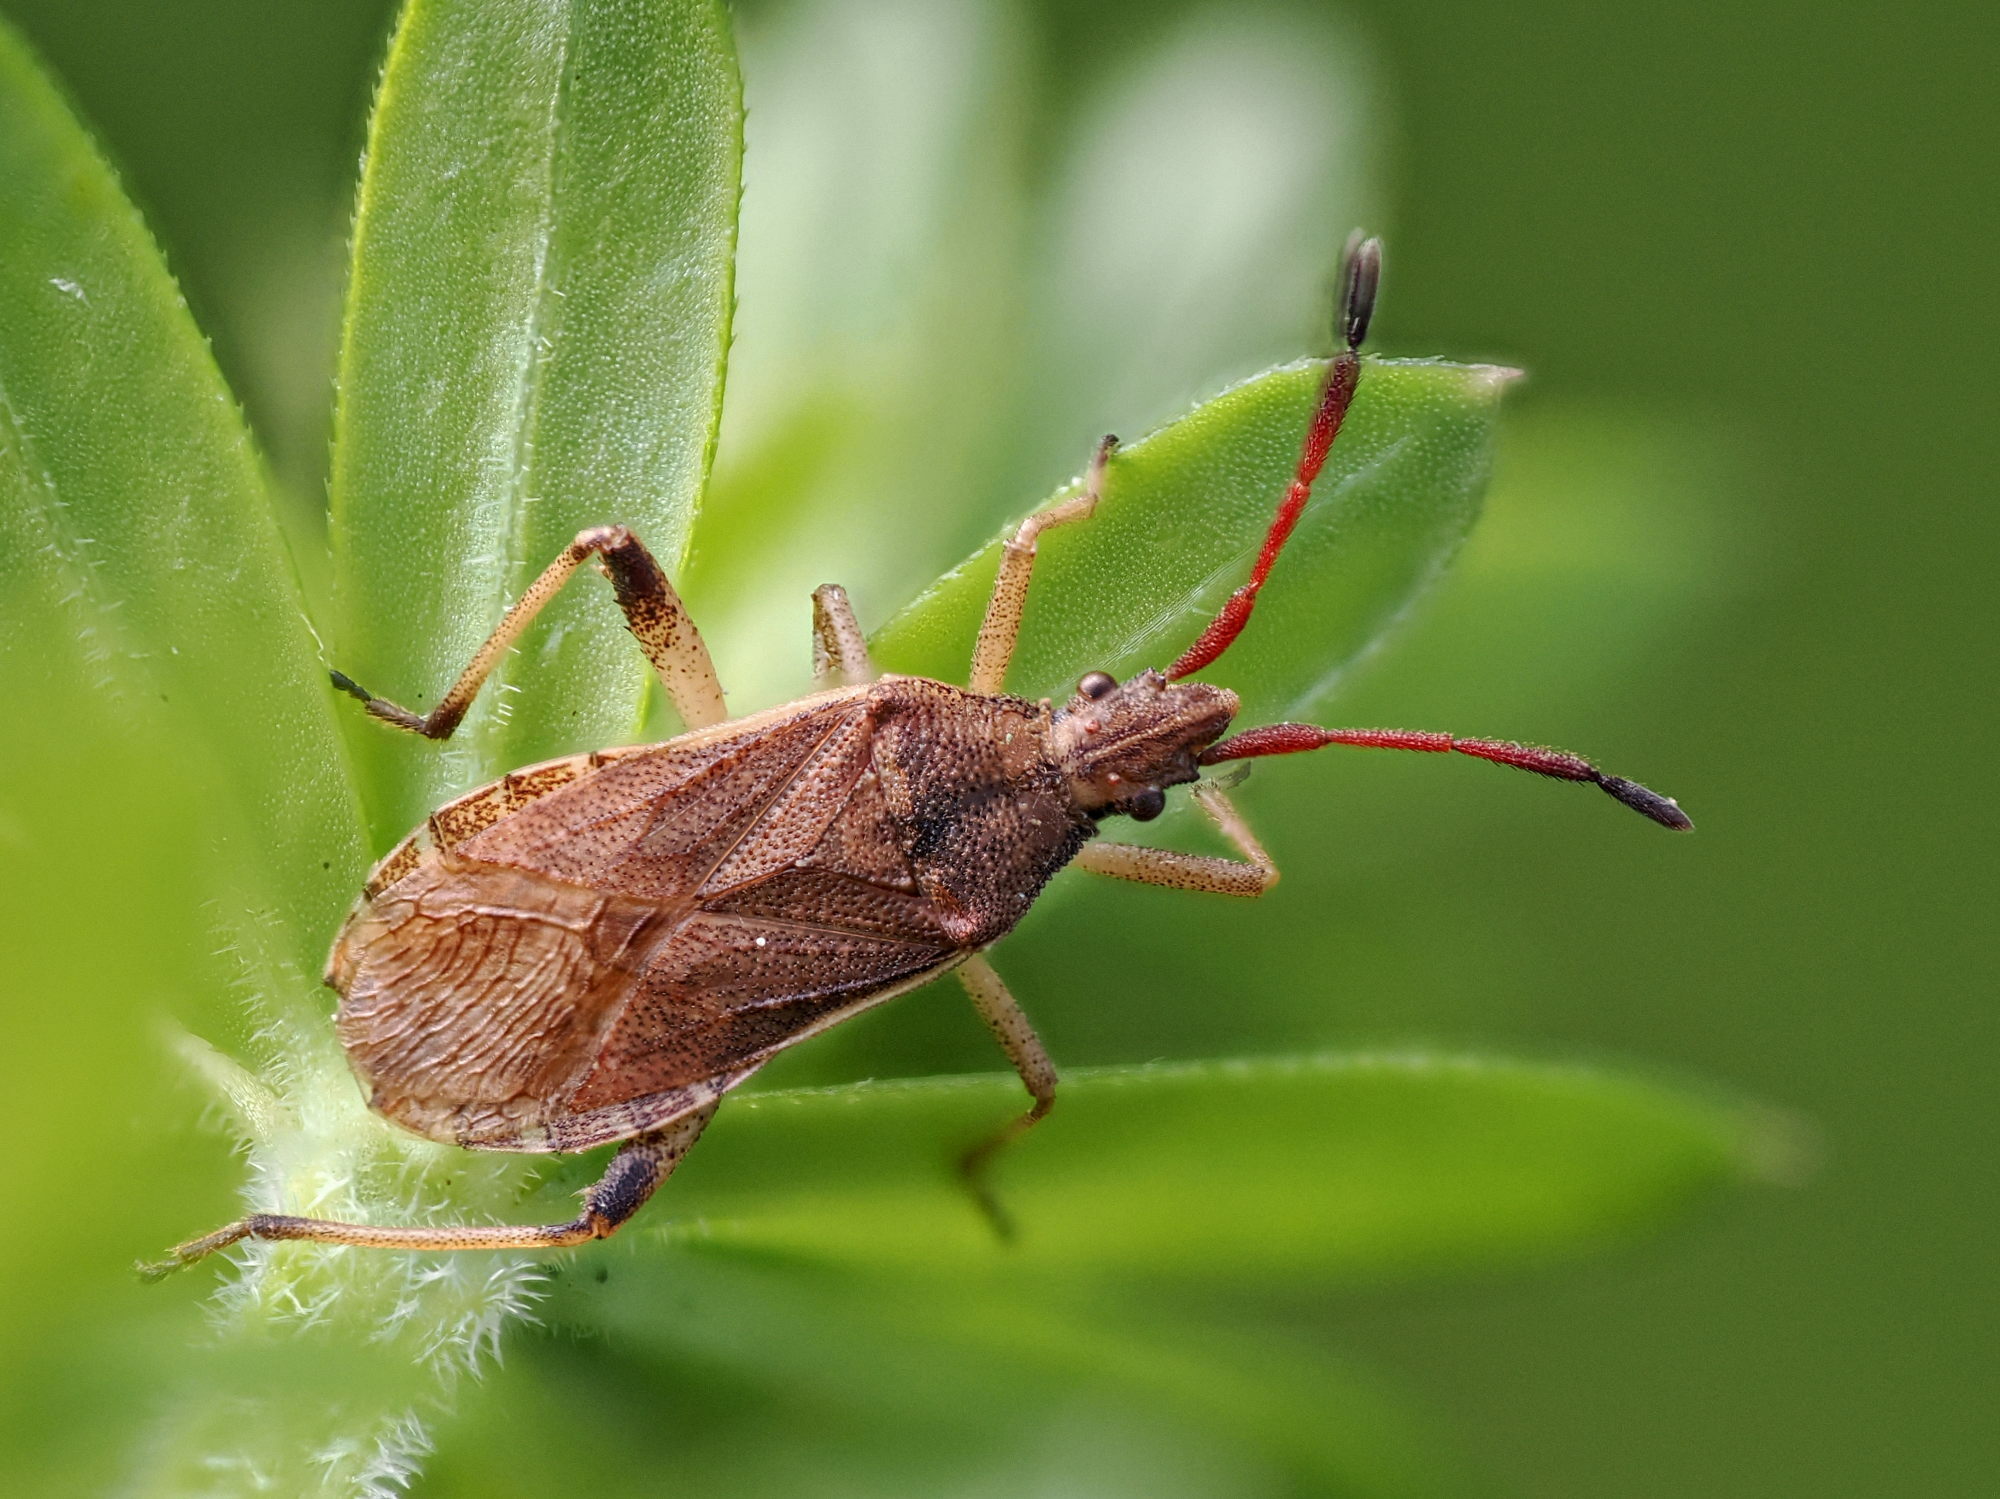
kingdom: Animalia
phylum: Arthropoda
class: Insecta
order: Hemiptera
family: Coreidae
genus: Ceraleptus
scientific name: Ceraleptus lividus
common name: Slender-horned leatherbug
